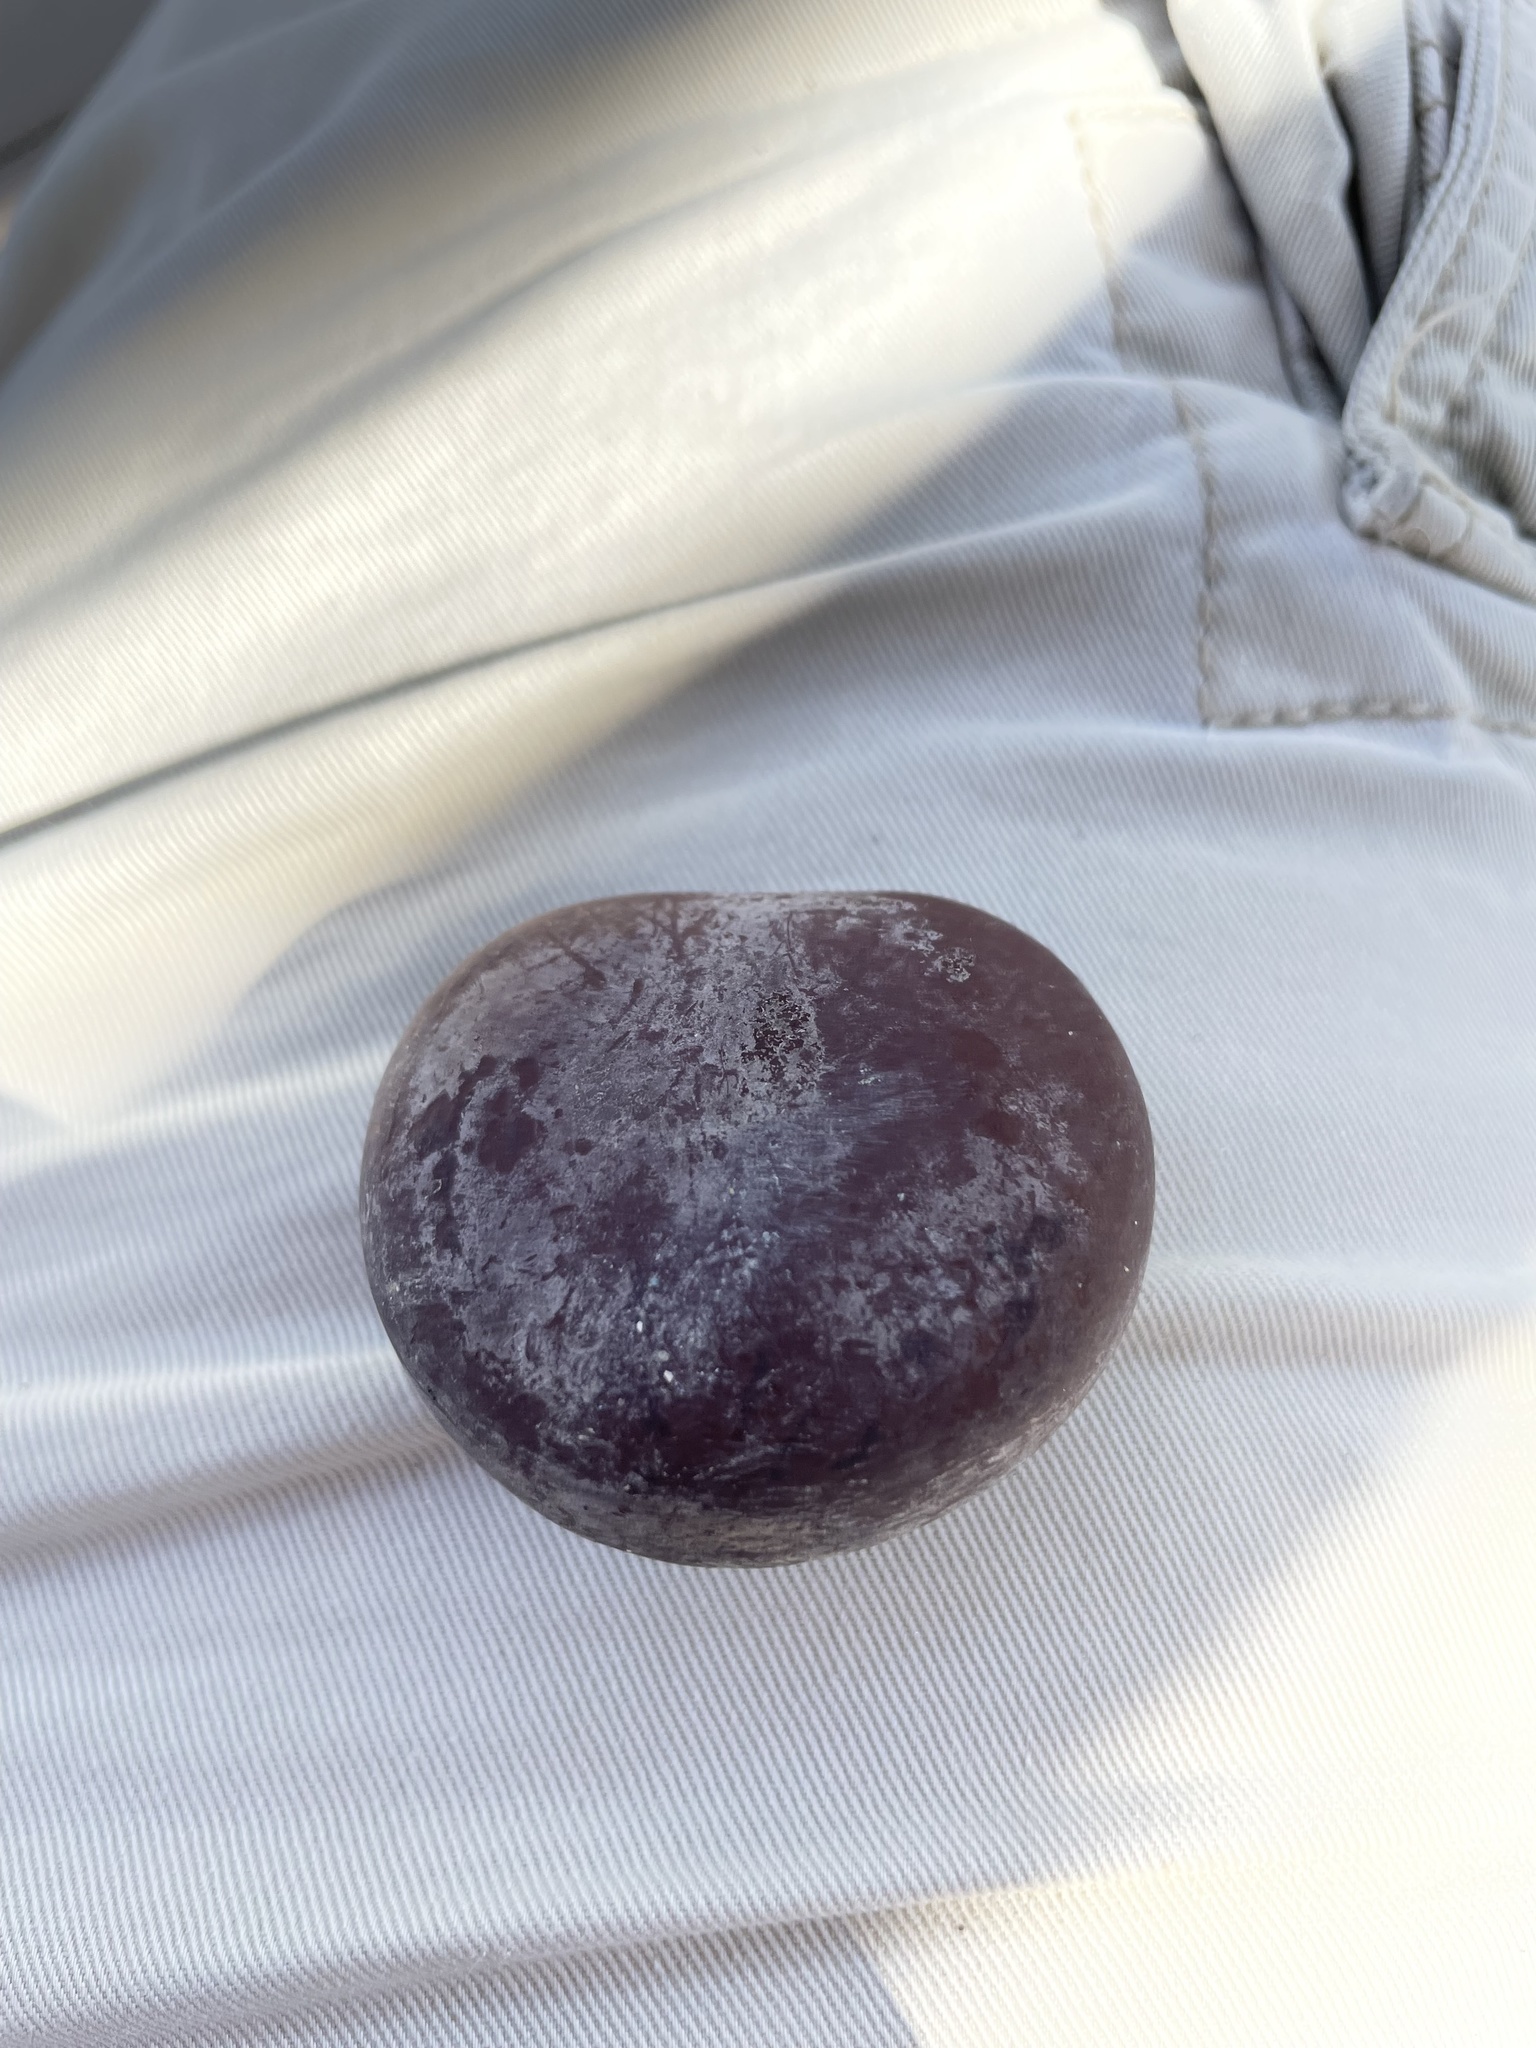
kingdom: Plantae
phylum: Tracheophyta
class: Magnoliopsida
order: Fabales
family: Fabaceae
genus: Entada
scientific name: Entada gigas
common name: Nicker-bean
